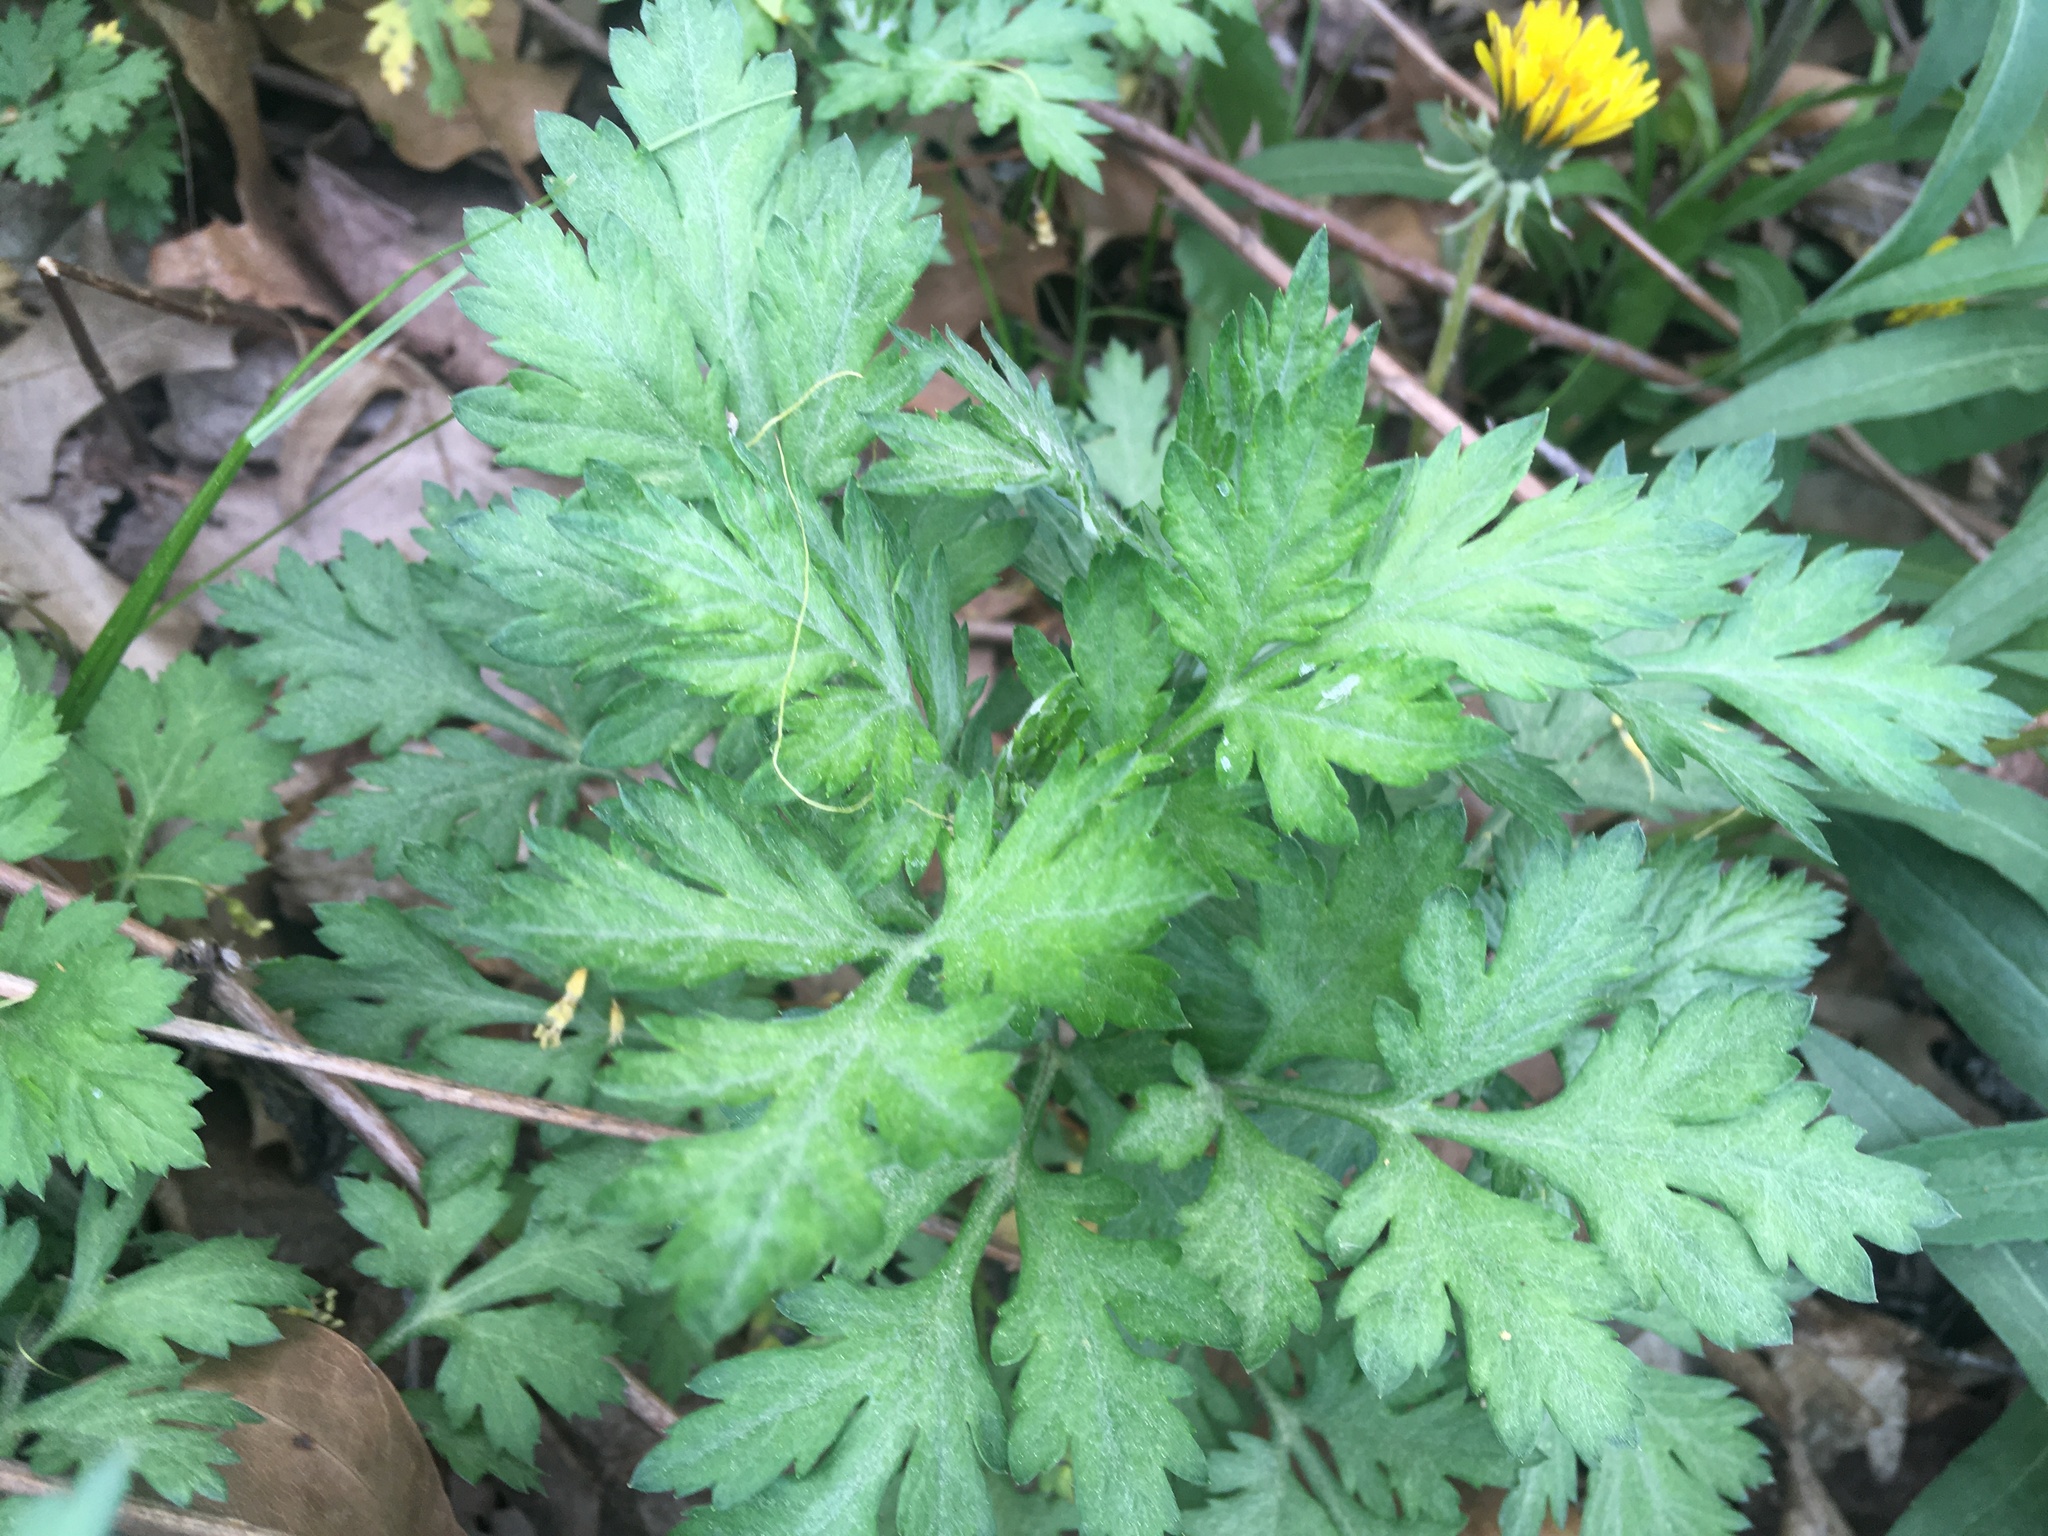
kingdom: Plantae
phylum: Tracheophyta
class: Magnoliopsida
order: Asterales
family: Asteraceae
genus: Artemisia
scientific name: Artemisia vulgaris
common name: Mugwort
